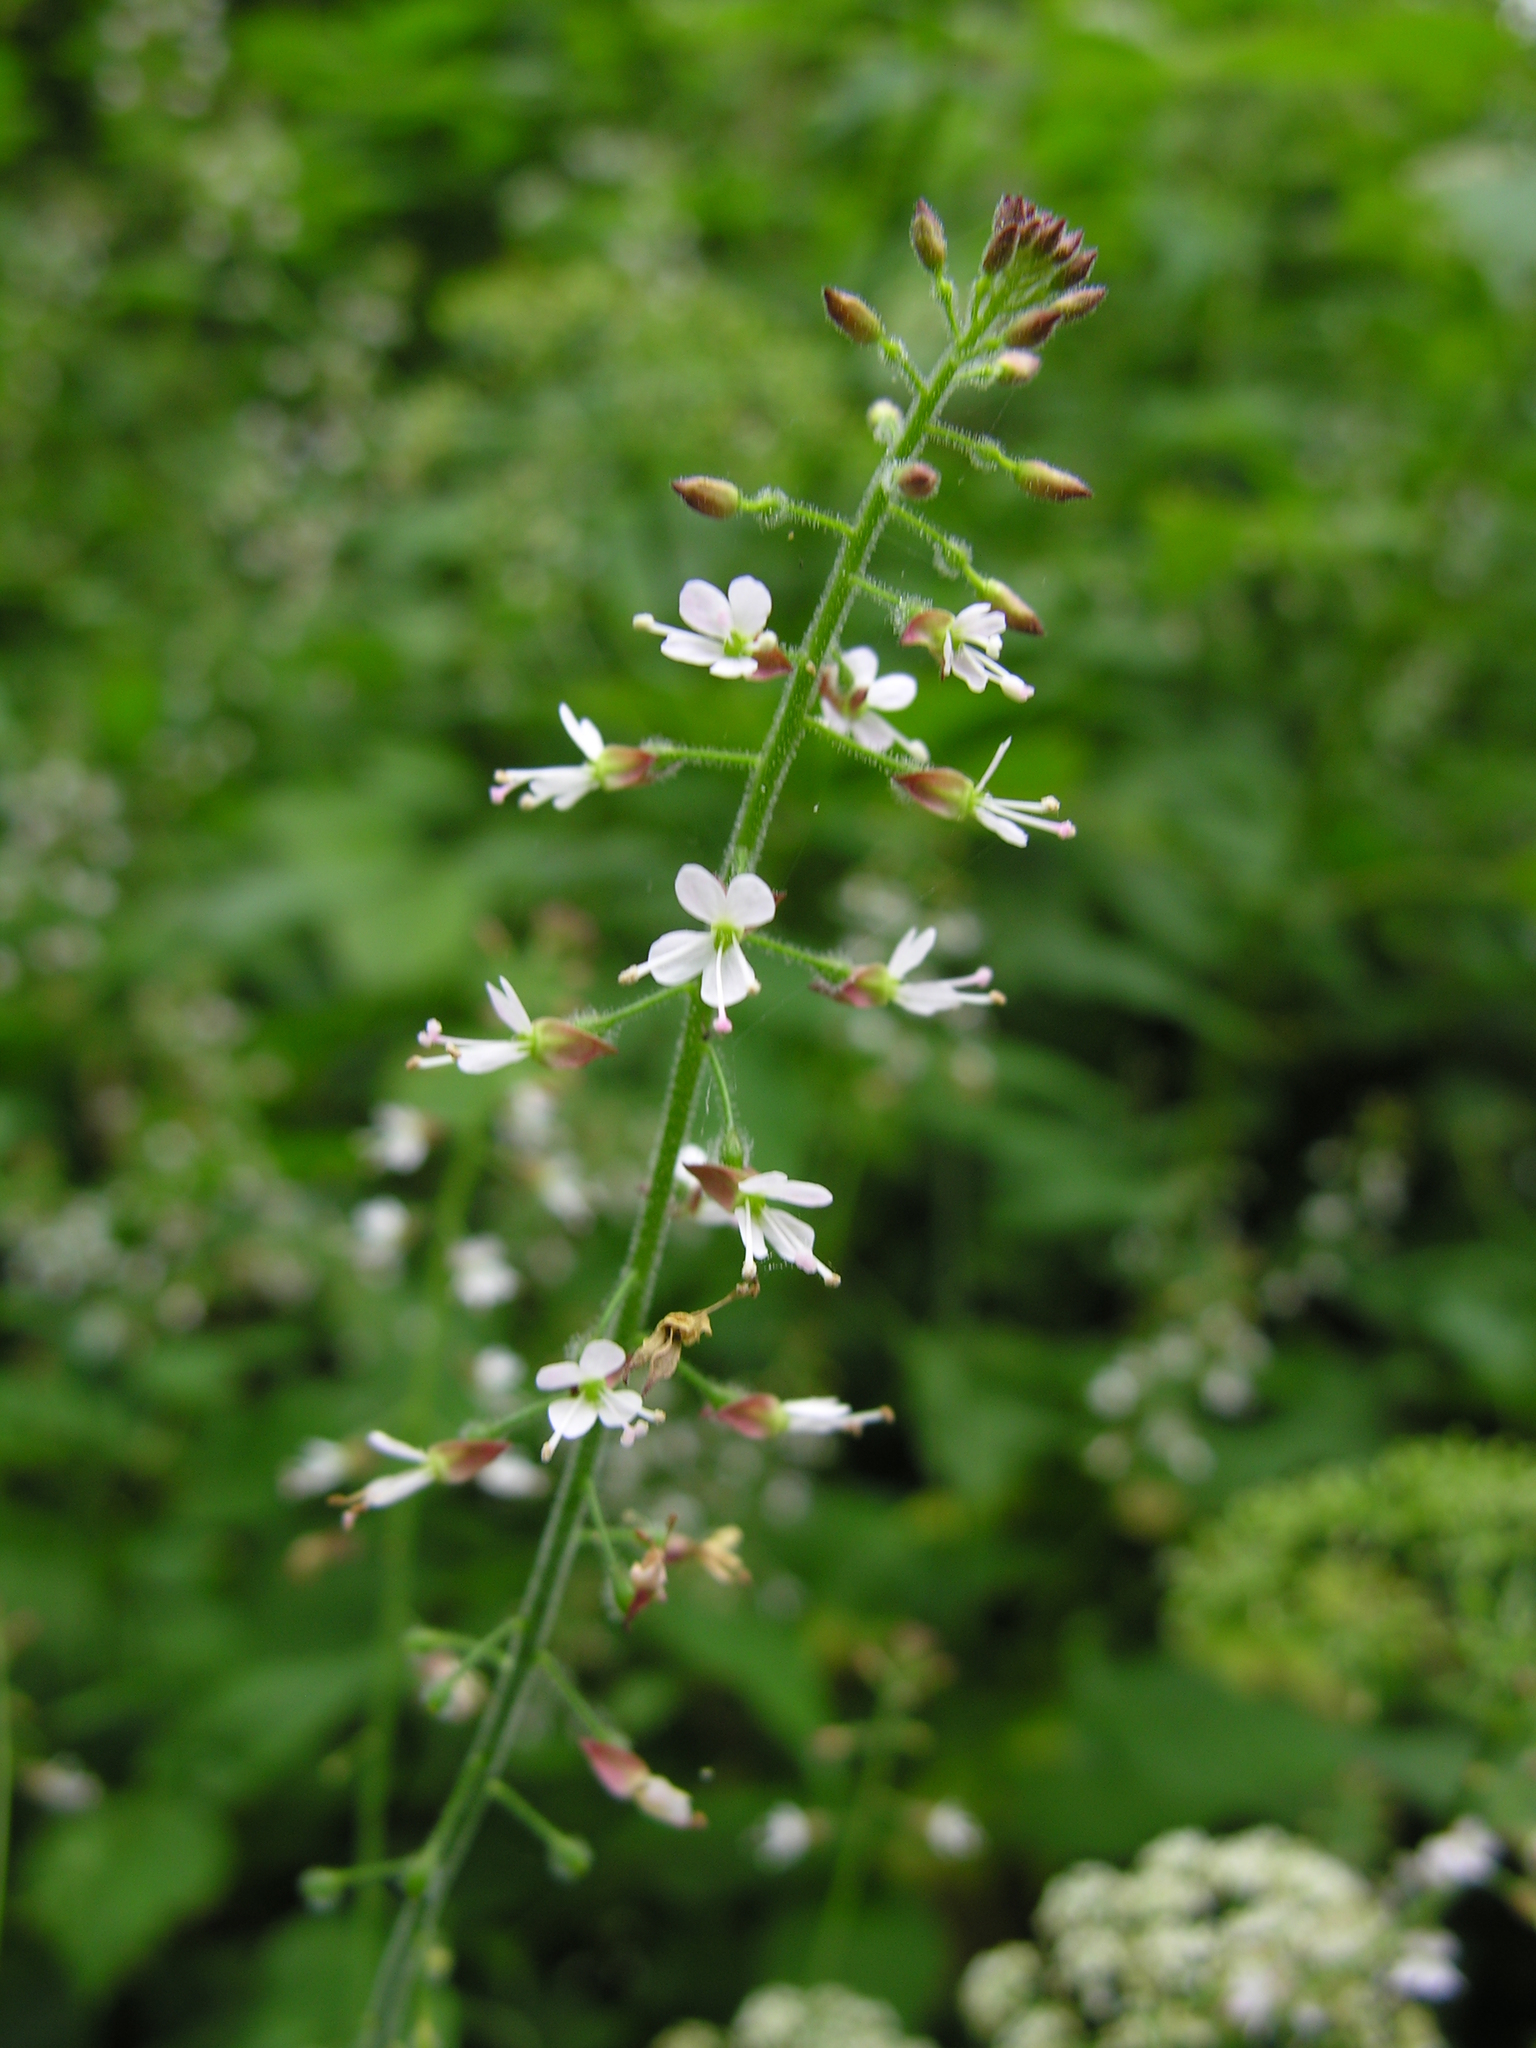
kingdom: Plantae
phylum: Tracheophyta
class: Magnoliopsida
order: Myrtales
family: Onagraceae
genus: Circaea
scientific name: Circaea lutetiana
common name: Enchanter's-nightshade
